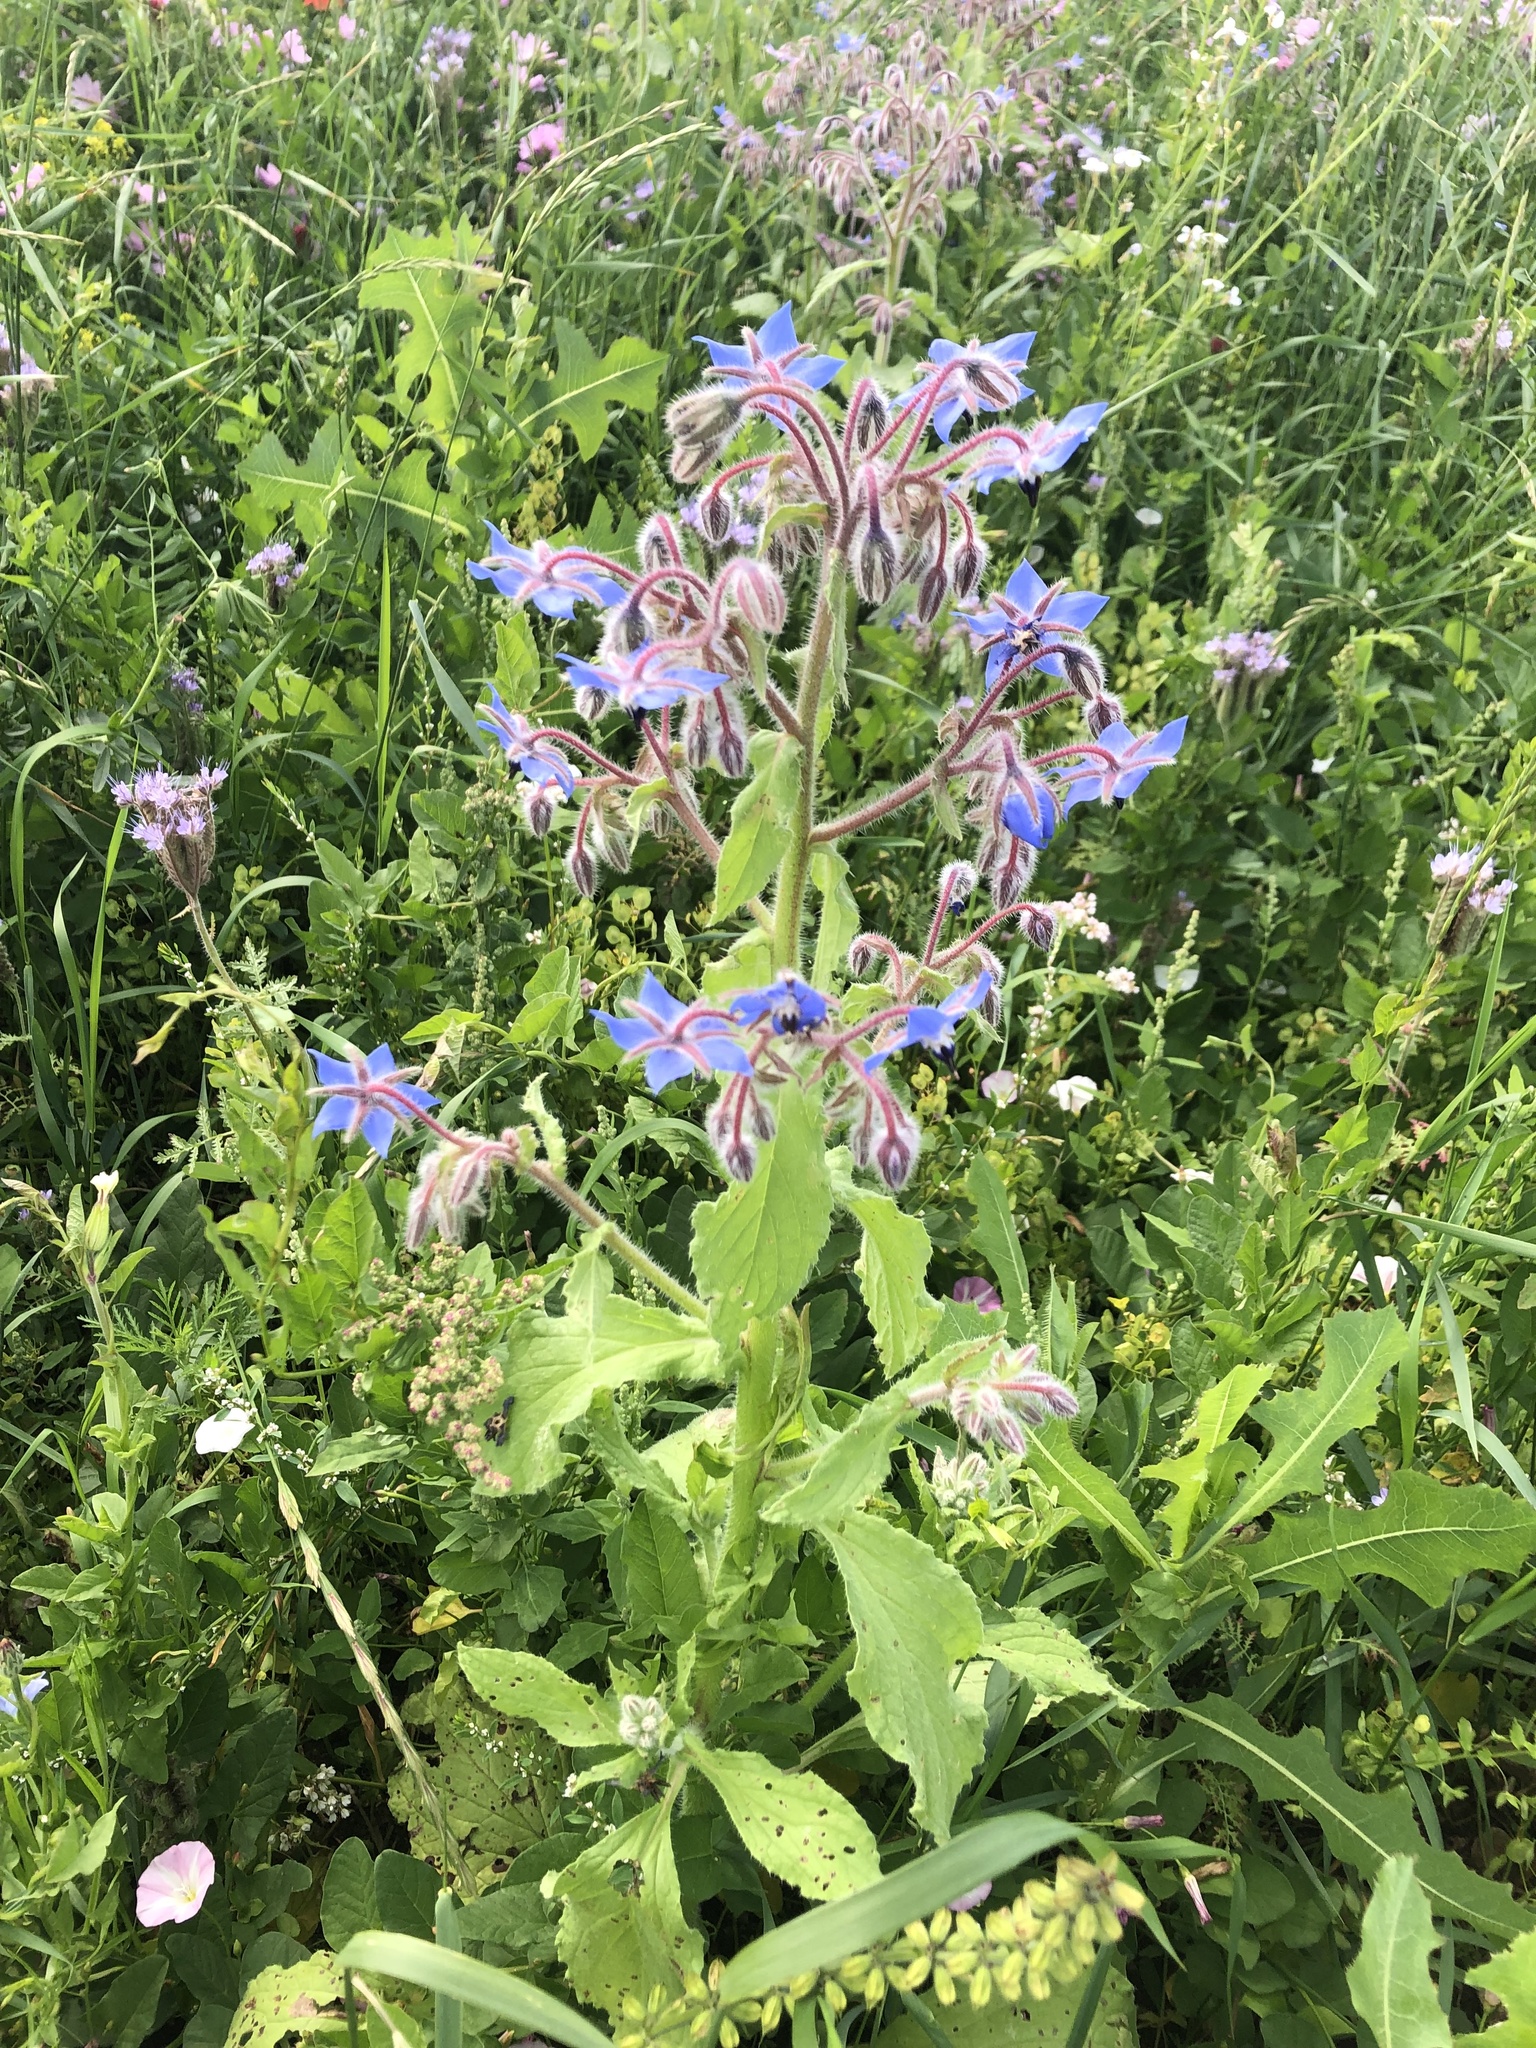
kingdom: Plantae
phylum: Tracheophyta
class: Magnoliopsida
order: Boraginales
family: Boraginaceae
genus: Borago
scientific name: Borago officinalis
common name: Borage
